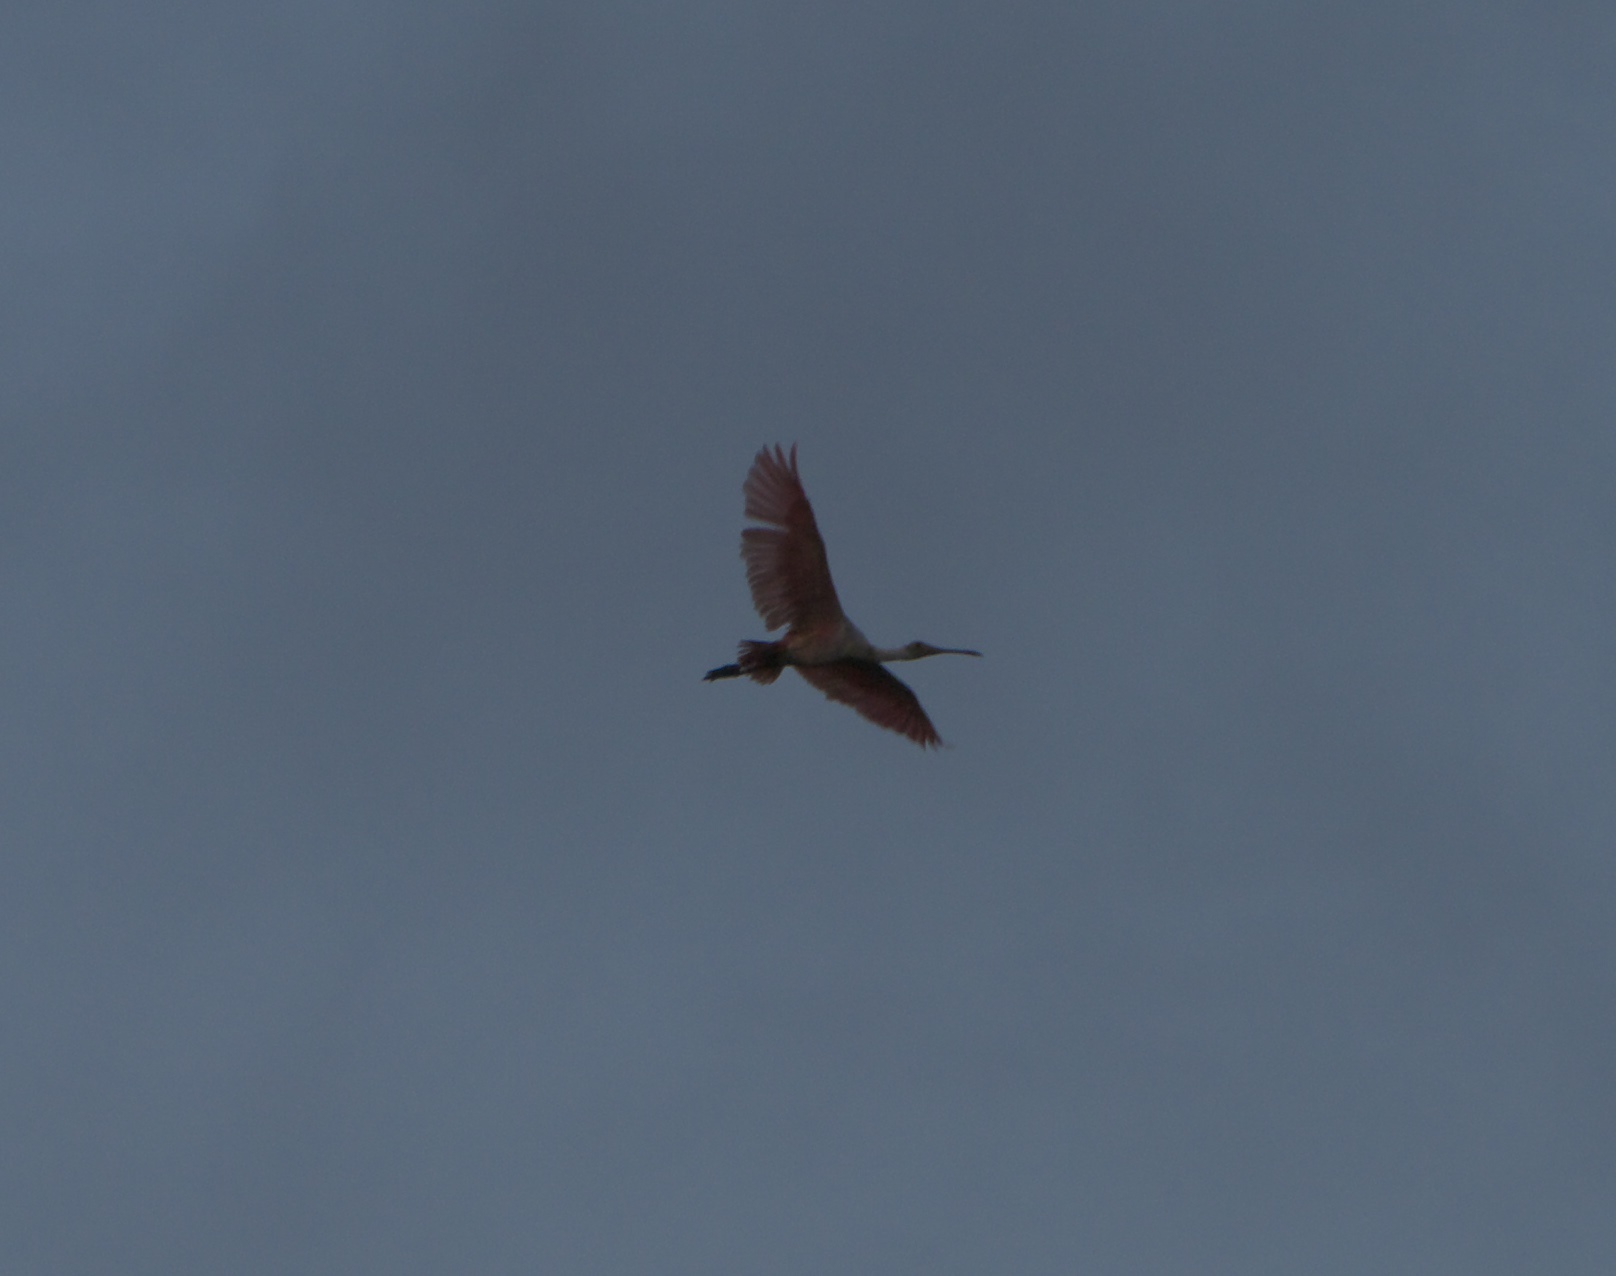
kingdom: Animalia
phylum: Chordata
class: Aves
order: Pelecaniformes
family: Threskiornithidae
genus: Platalea
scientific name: Platalea ajaja
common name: Roseate spoonbill
